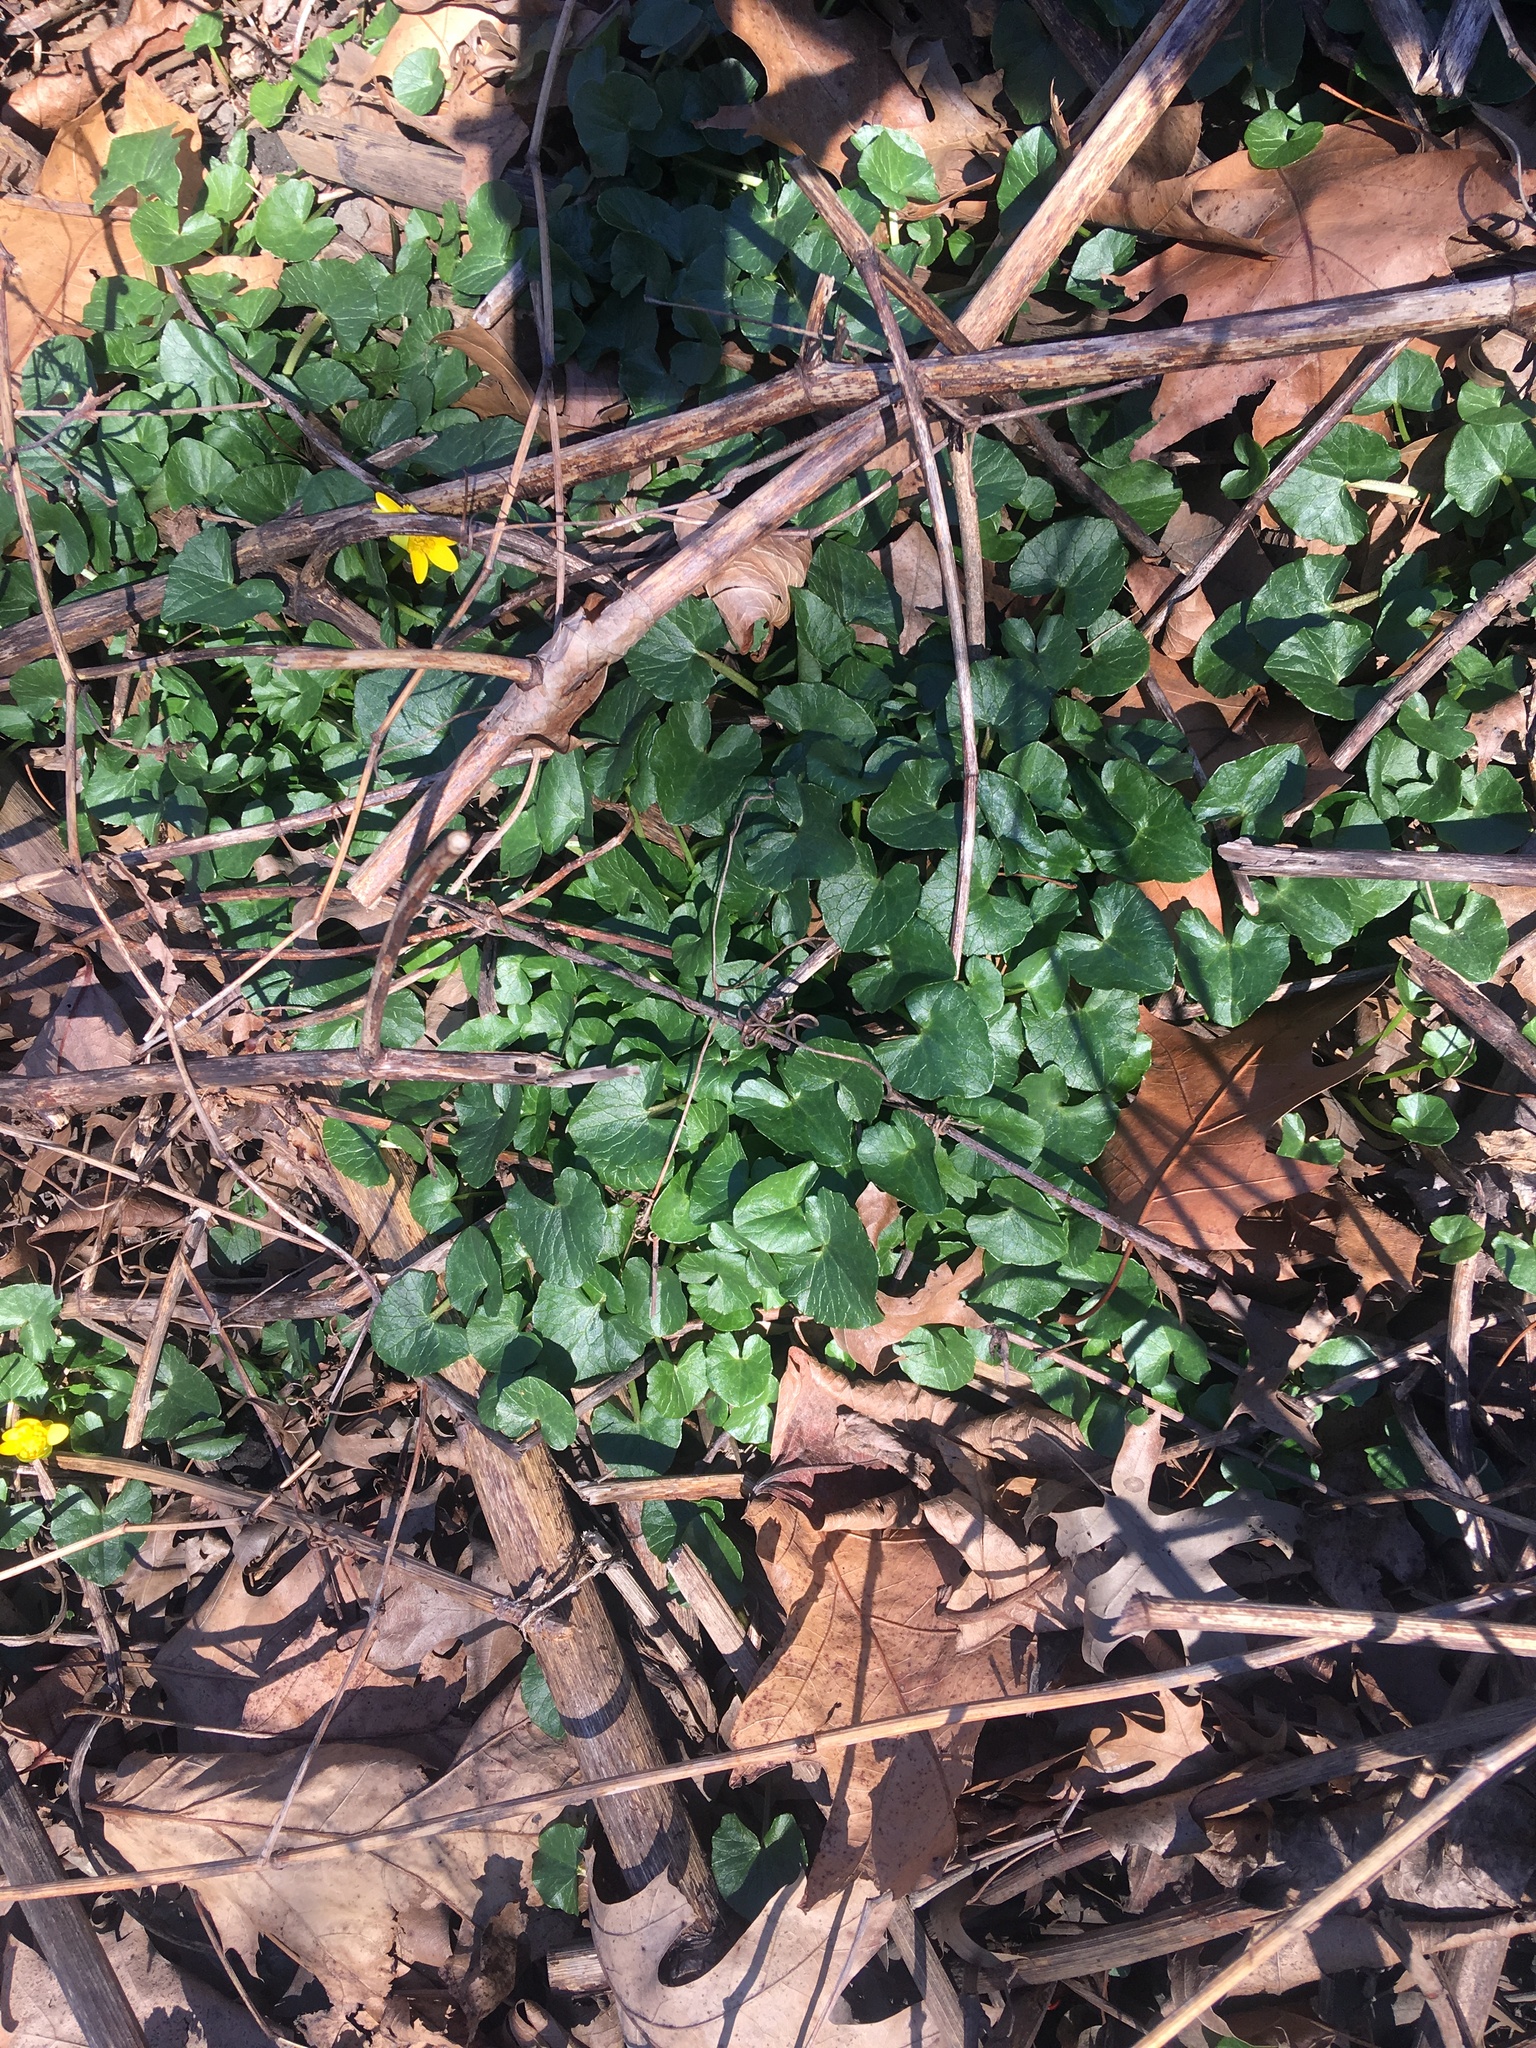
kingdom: Plantae
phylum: Tracheophyta
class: Magnoliopsida
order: Ranunculales
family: Ranunculaceae
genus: Ficaria
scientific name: Ficaria verna
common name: Lesser celandine
